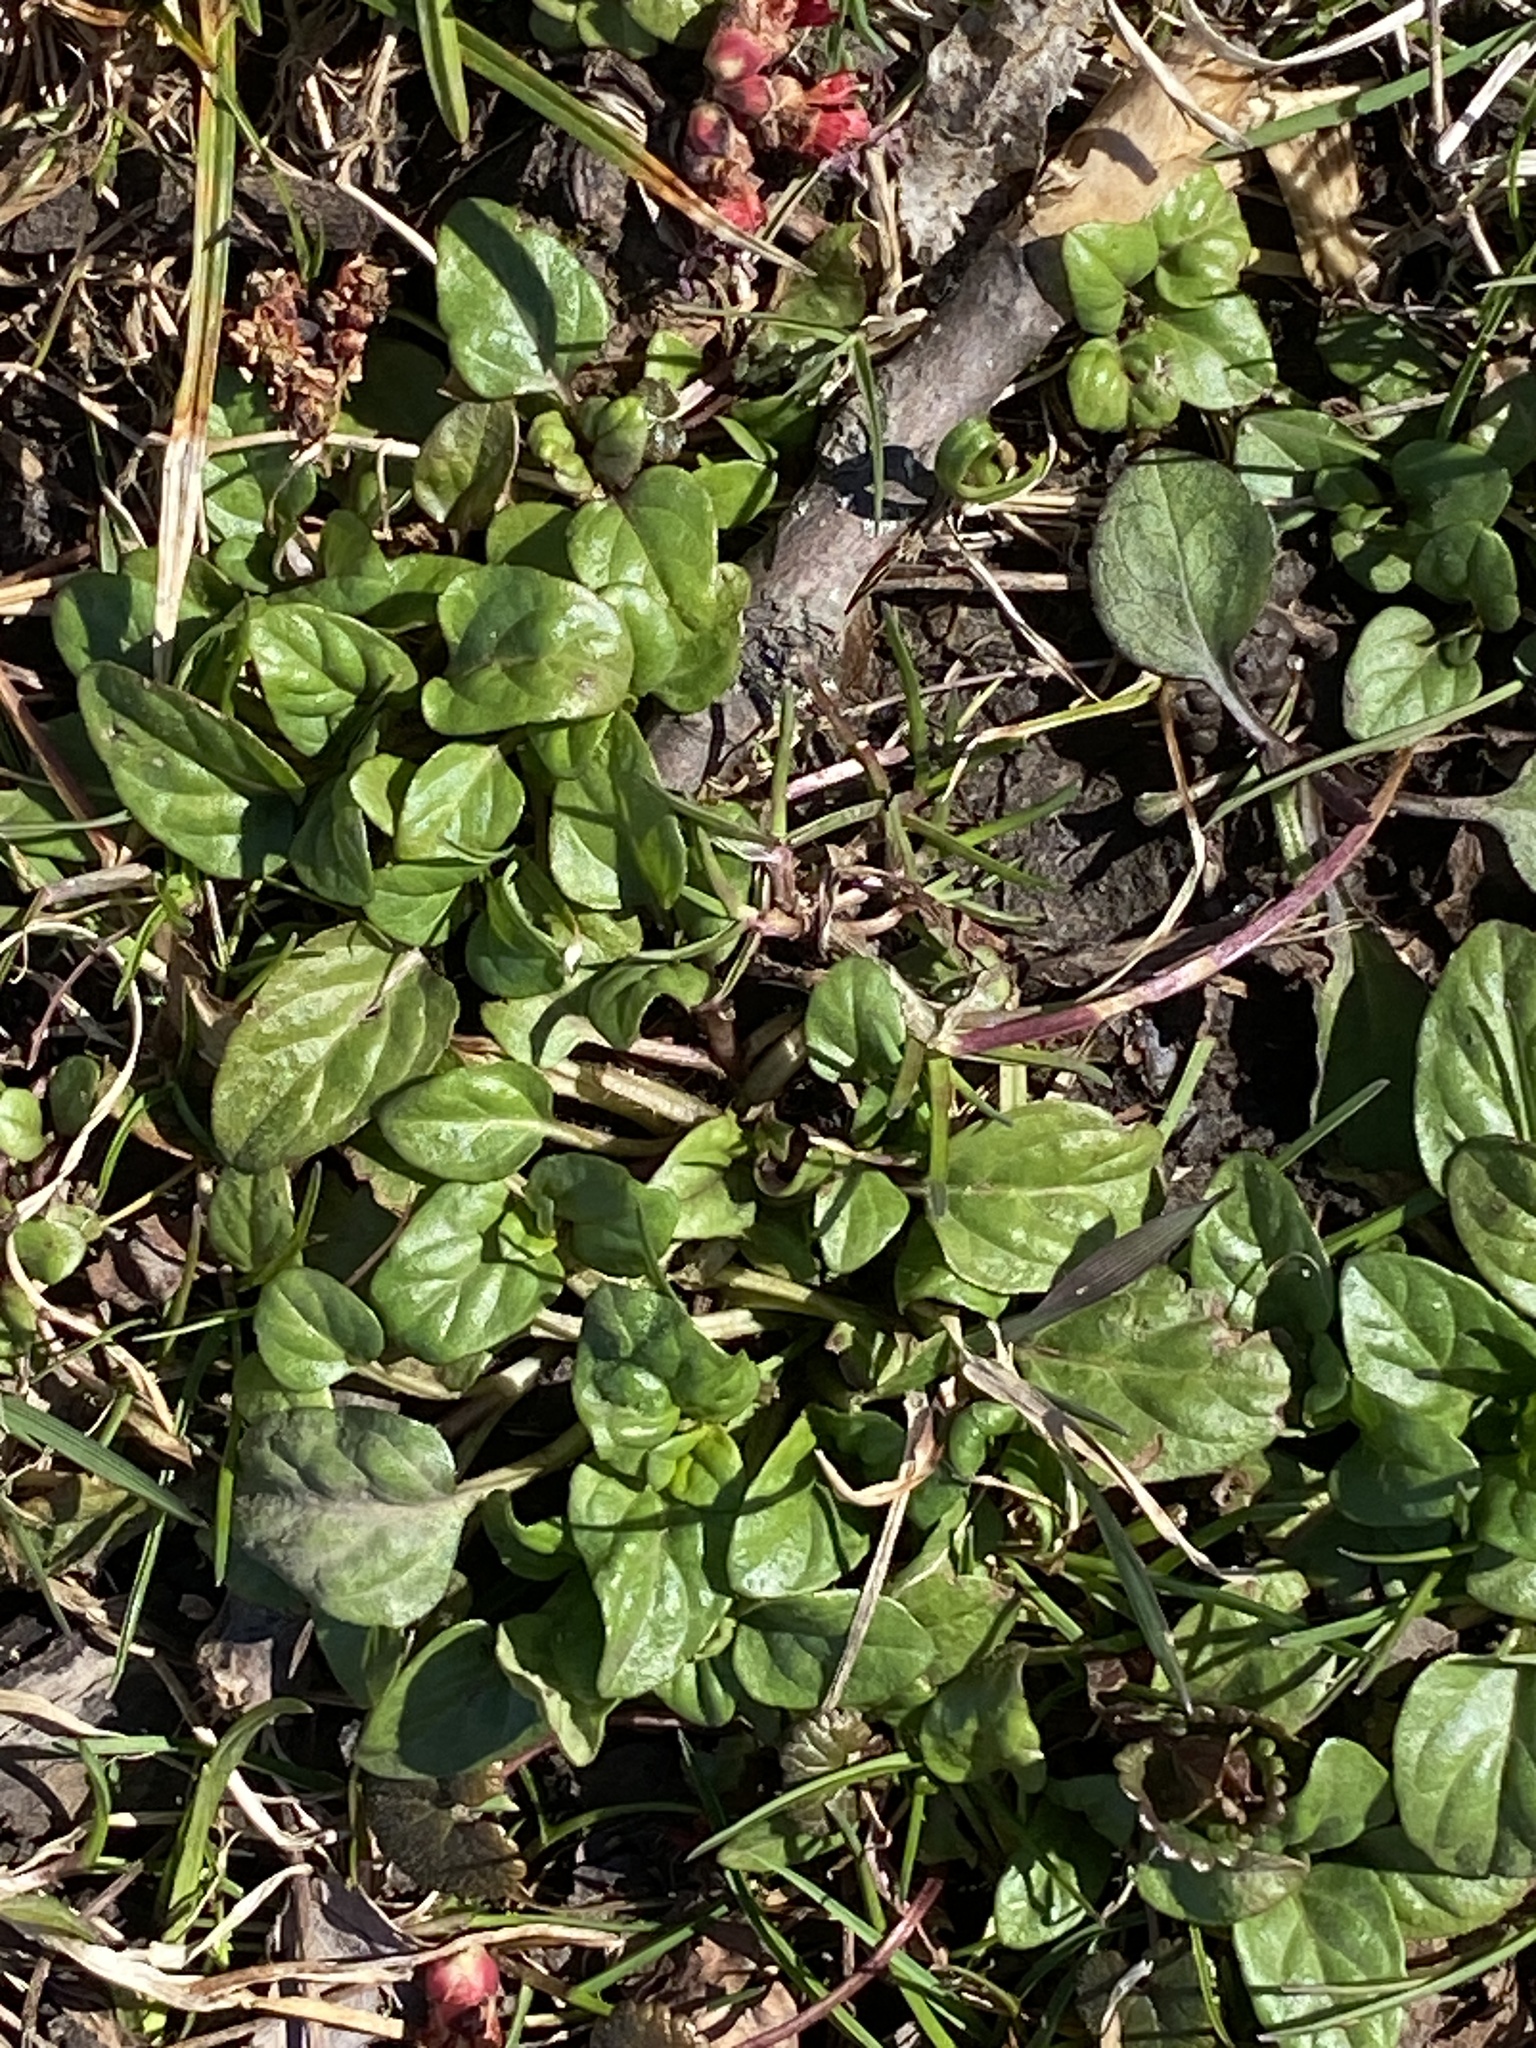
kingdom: Plantae
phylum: Tracheophyta
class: Magnoliopsida
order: Lamiales
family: Lamiaceae
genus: Prunella
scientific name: Prunella vulgaris
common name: Heal-all
